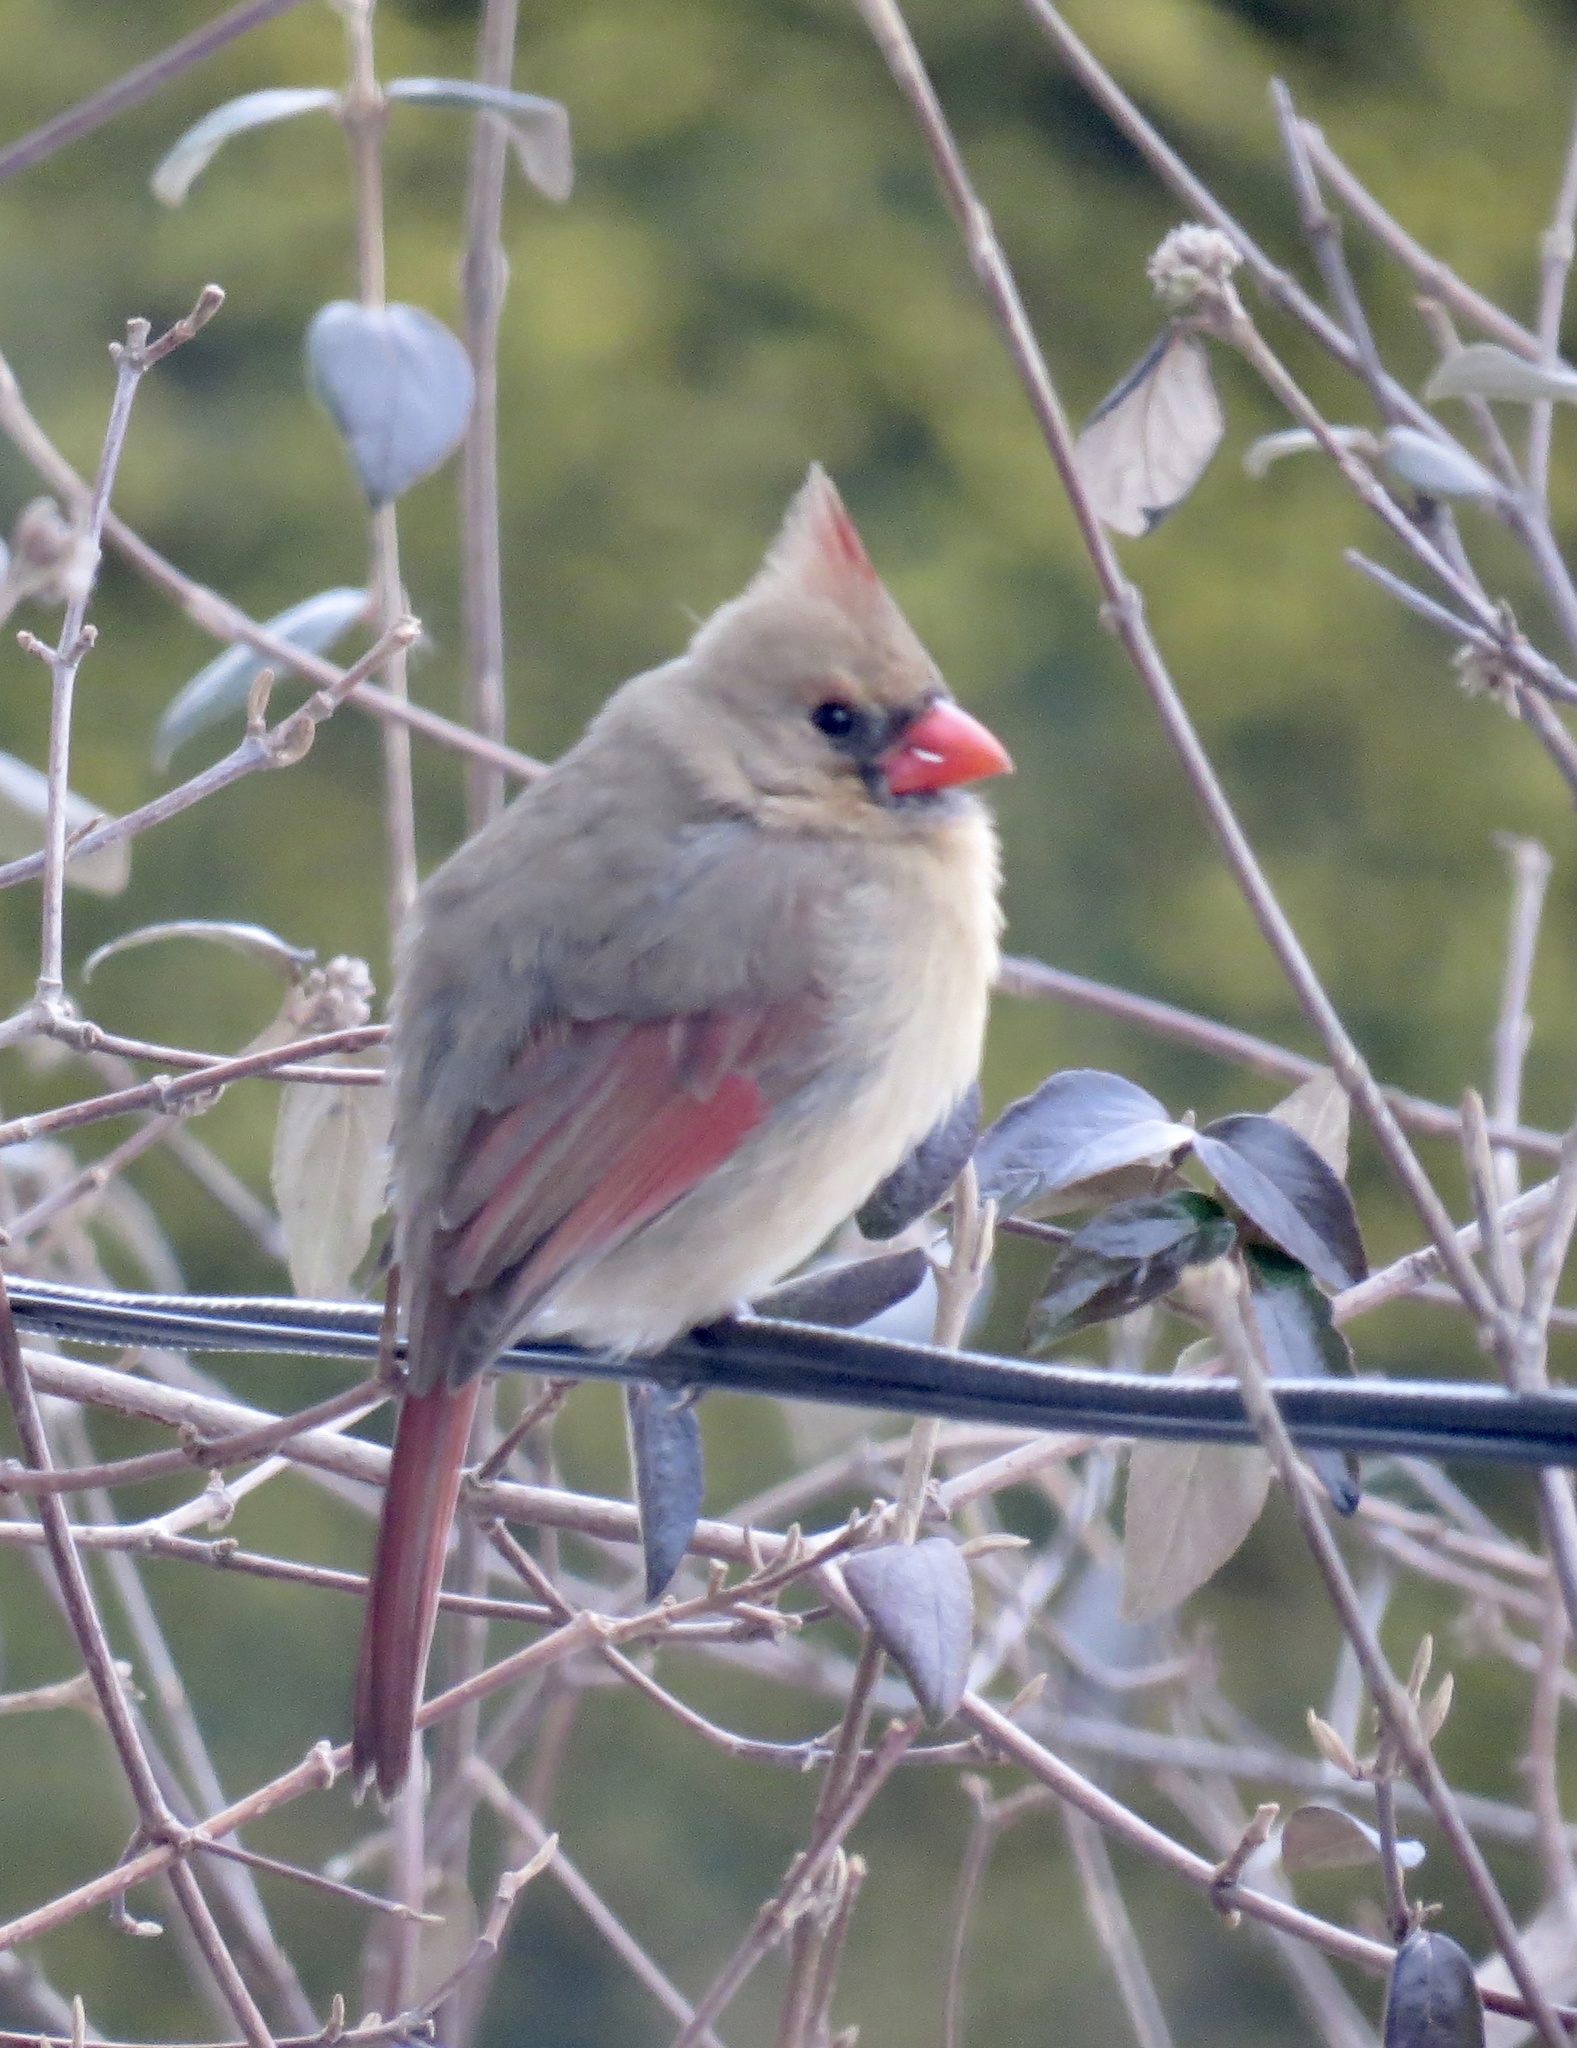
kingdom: Animalia
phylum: Chordata
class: Aves
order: Passeriformes
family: Cardinalidae
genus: Cardinalis
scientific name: Cardinalis cardinalis
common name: Northern cardinal
